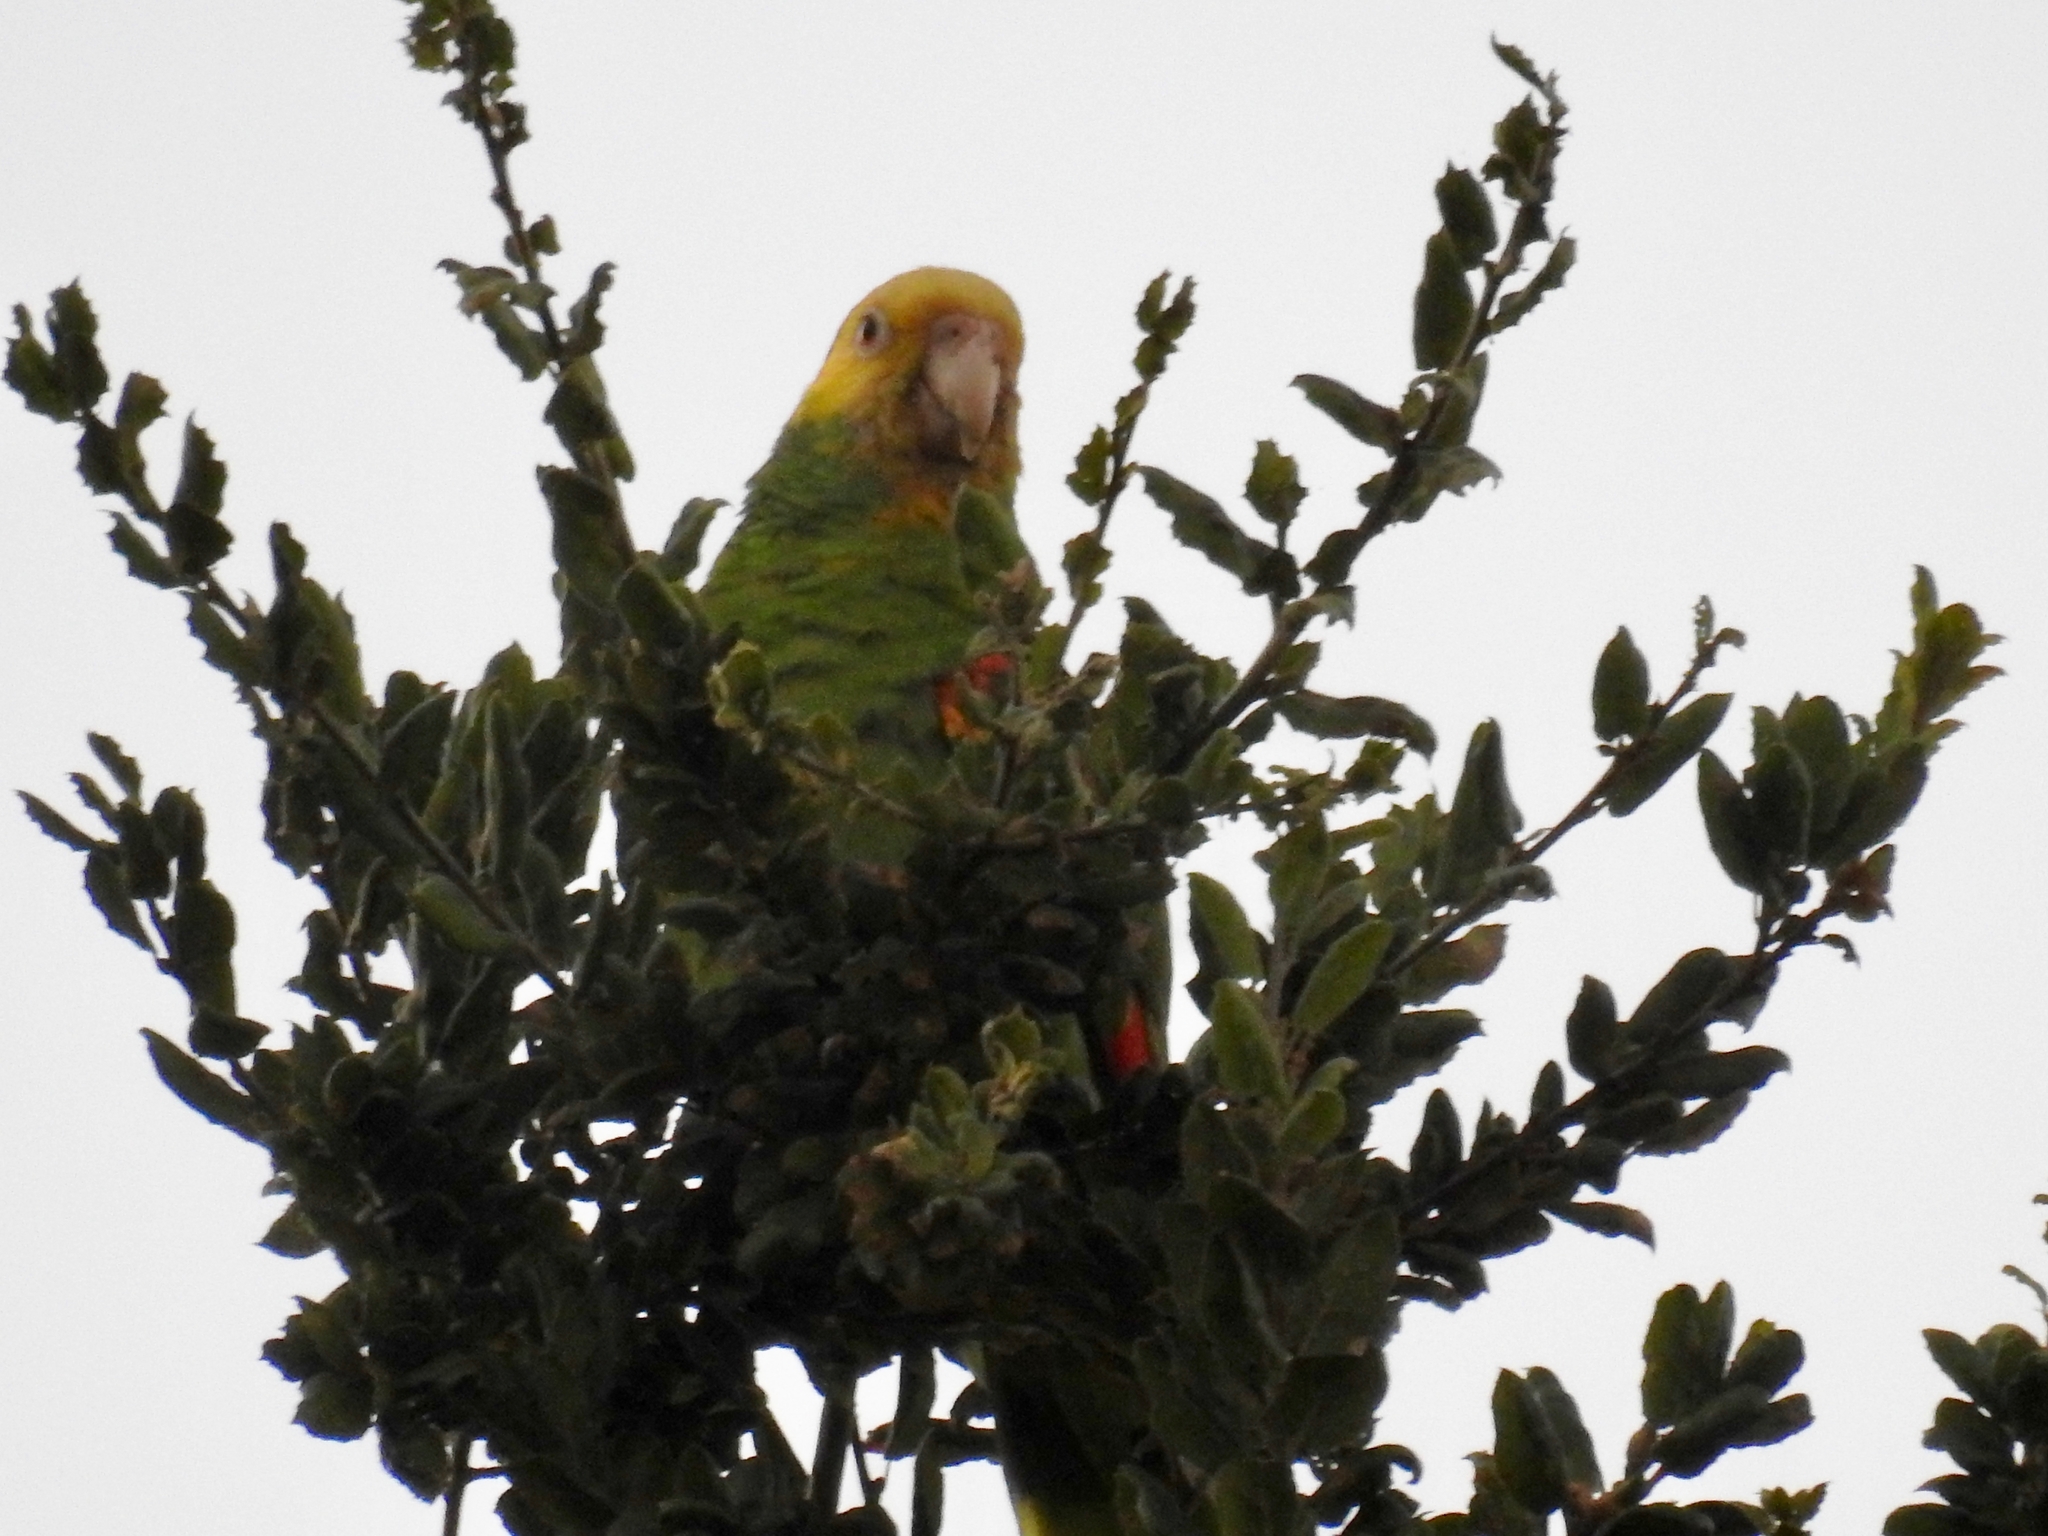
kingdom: Animalia
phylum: Chordata
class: Aves
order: Psittaciformes
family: Psittacidae
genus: Amazona
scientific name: Amazona oratrix
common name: Yellow-headed amazon
